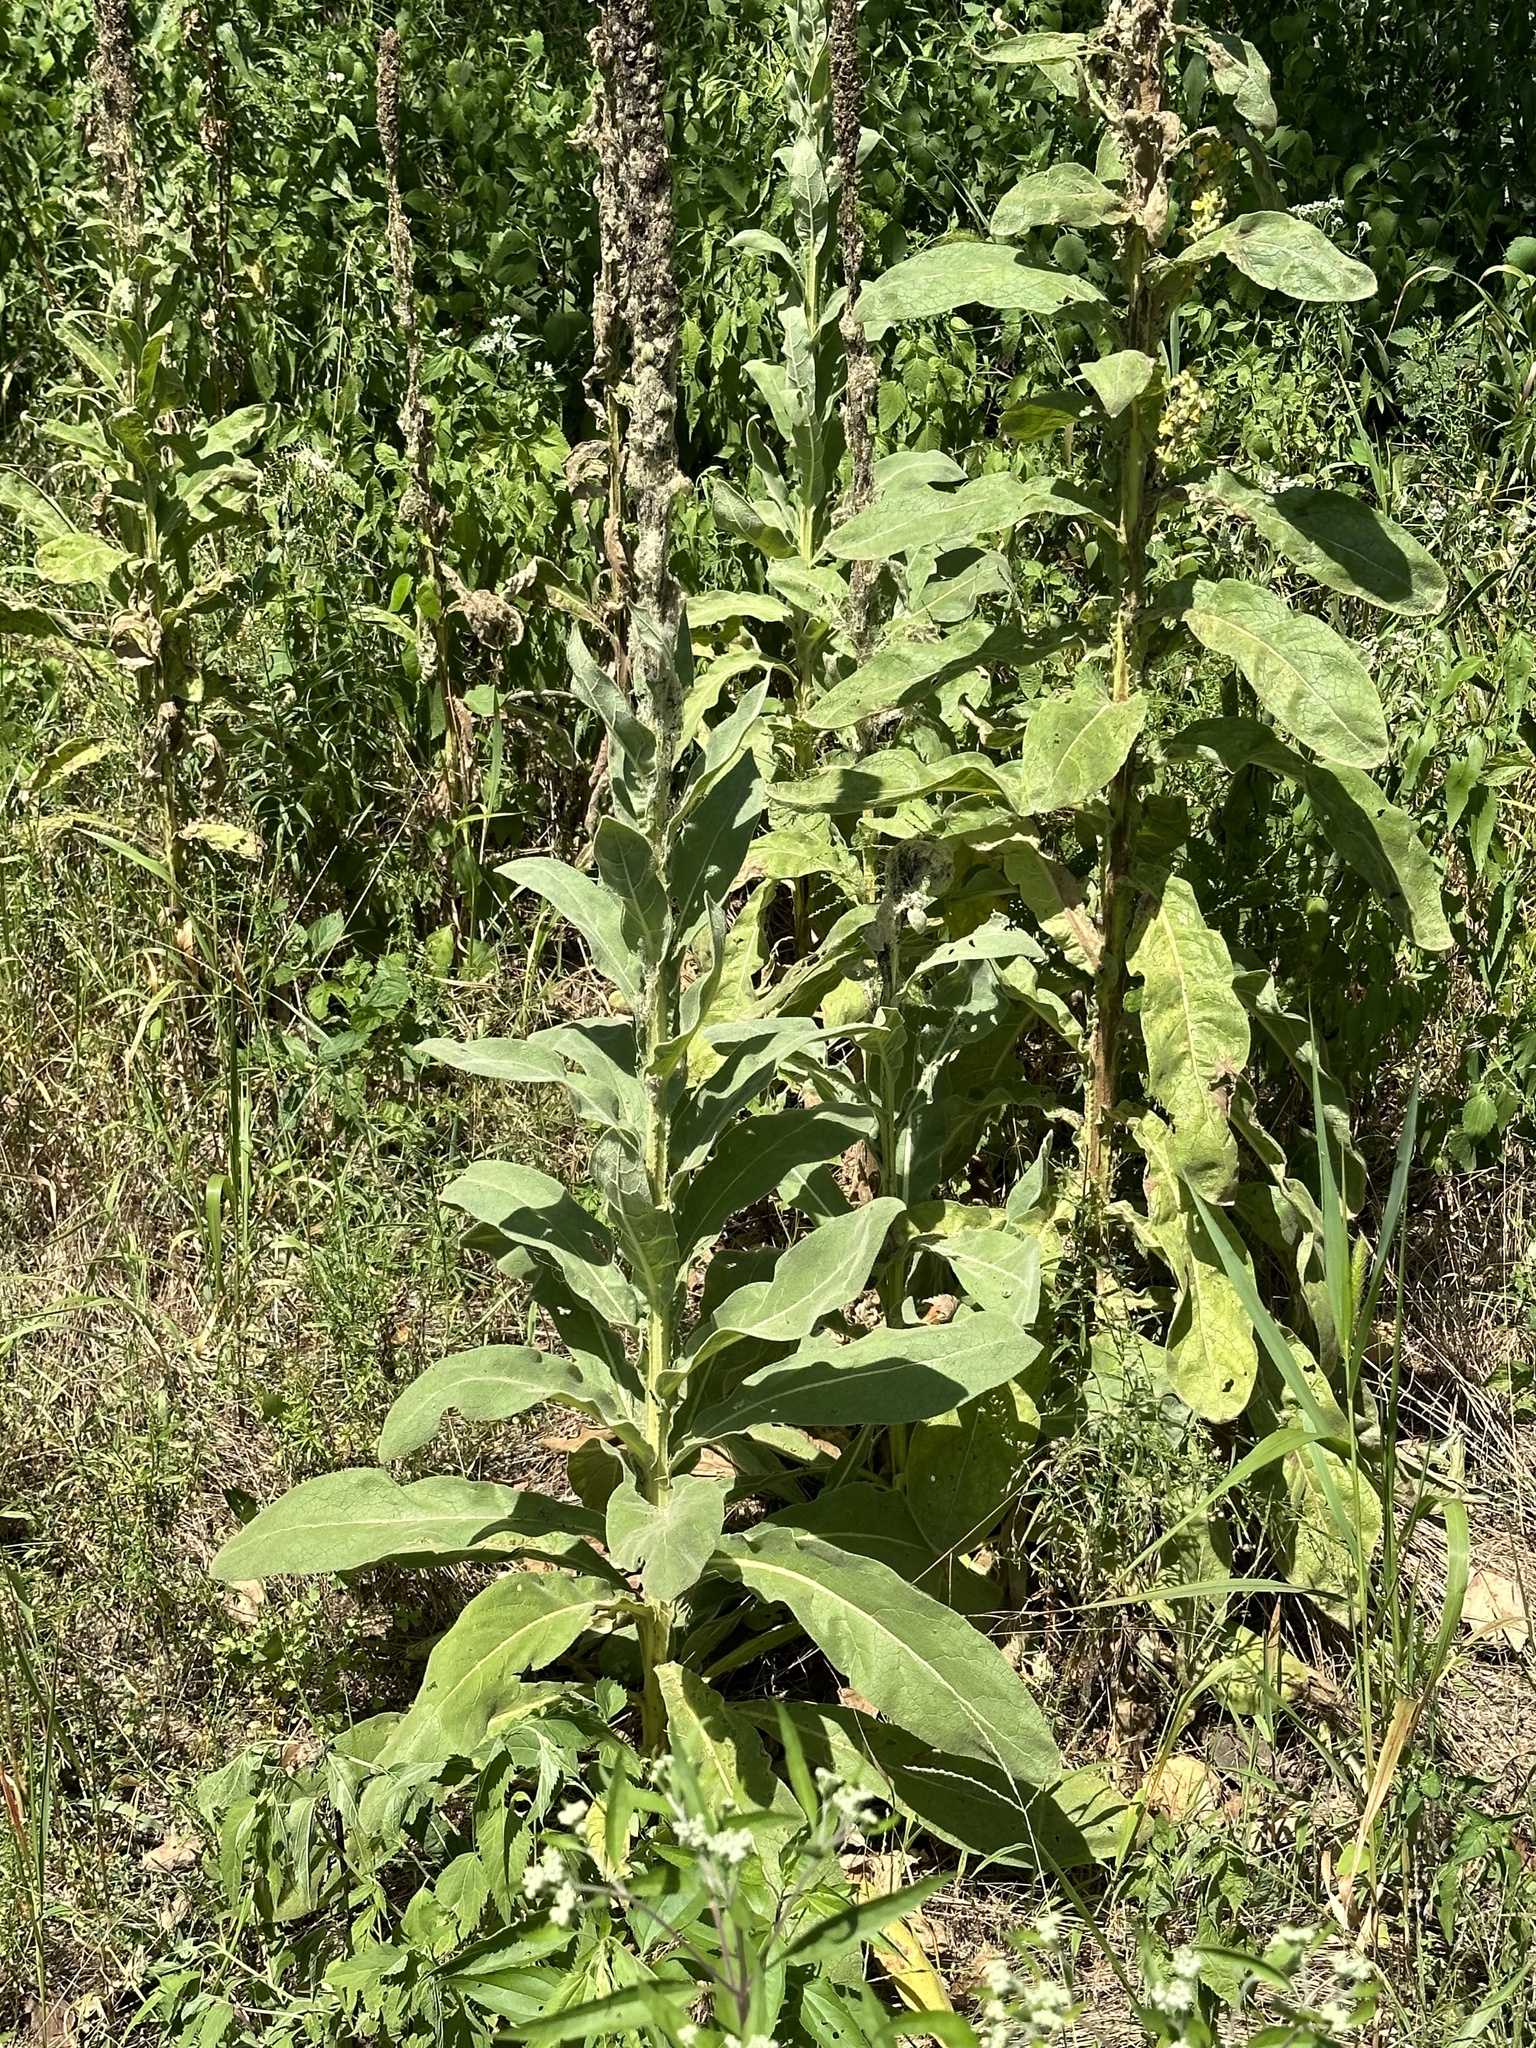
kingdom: Plantae
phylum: Tracheophyta
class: Magnoliopsida
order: Lamiales
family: Scrophulariaceae
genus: Verbascum
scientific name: Verbascum thapsus
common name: Common mullein
